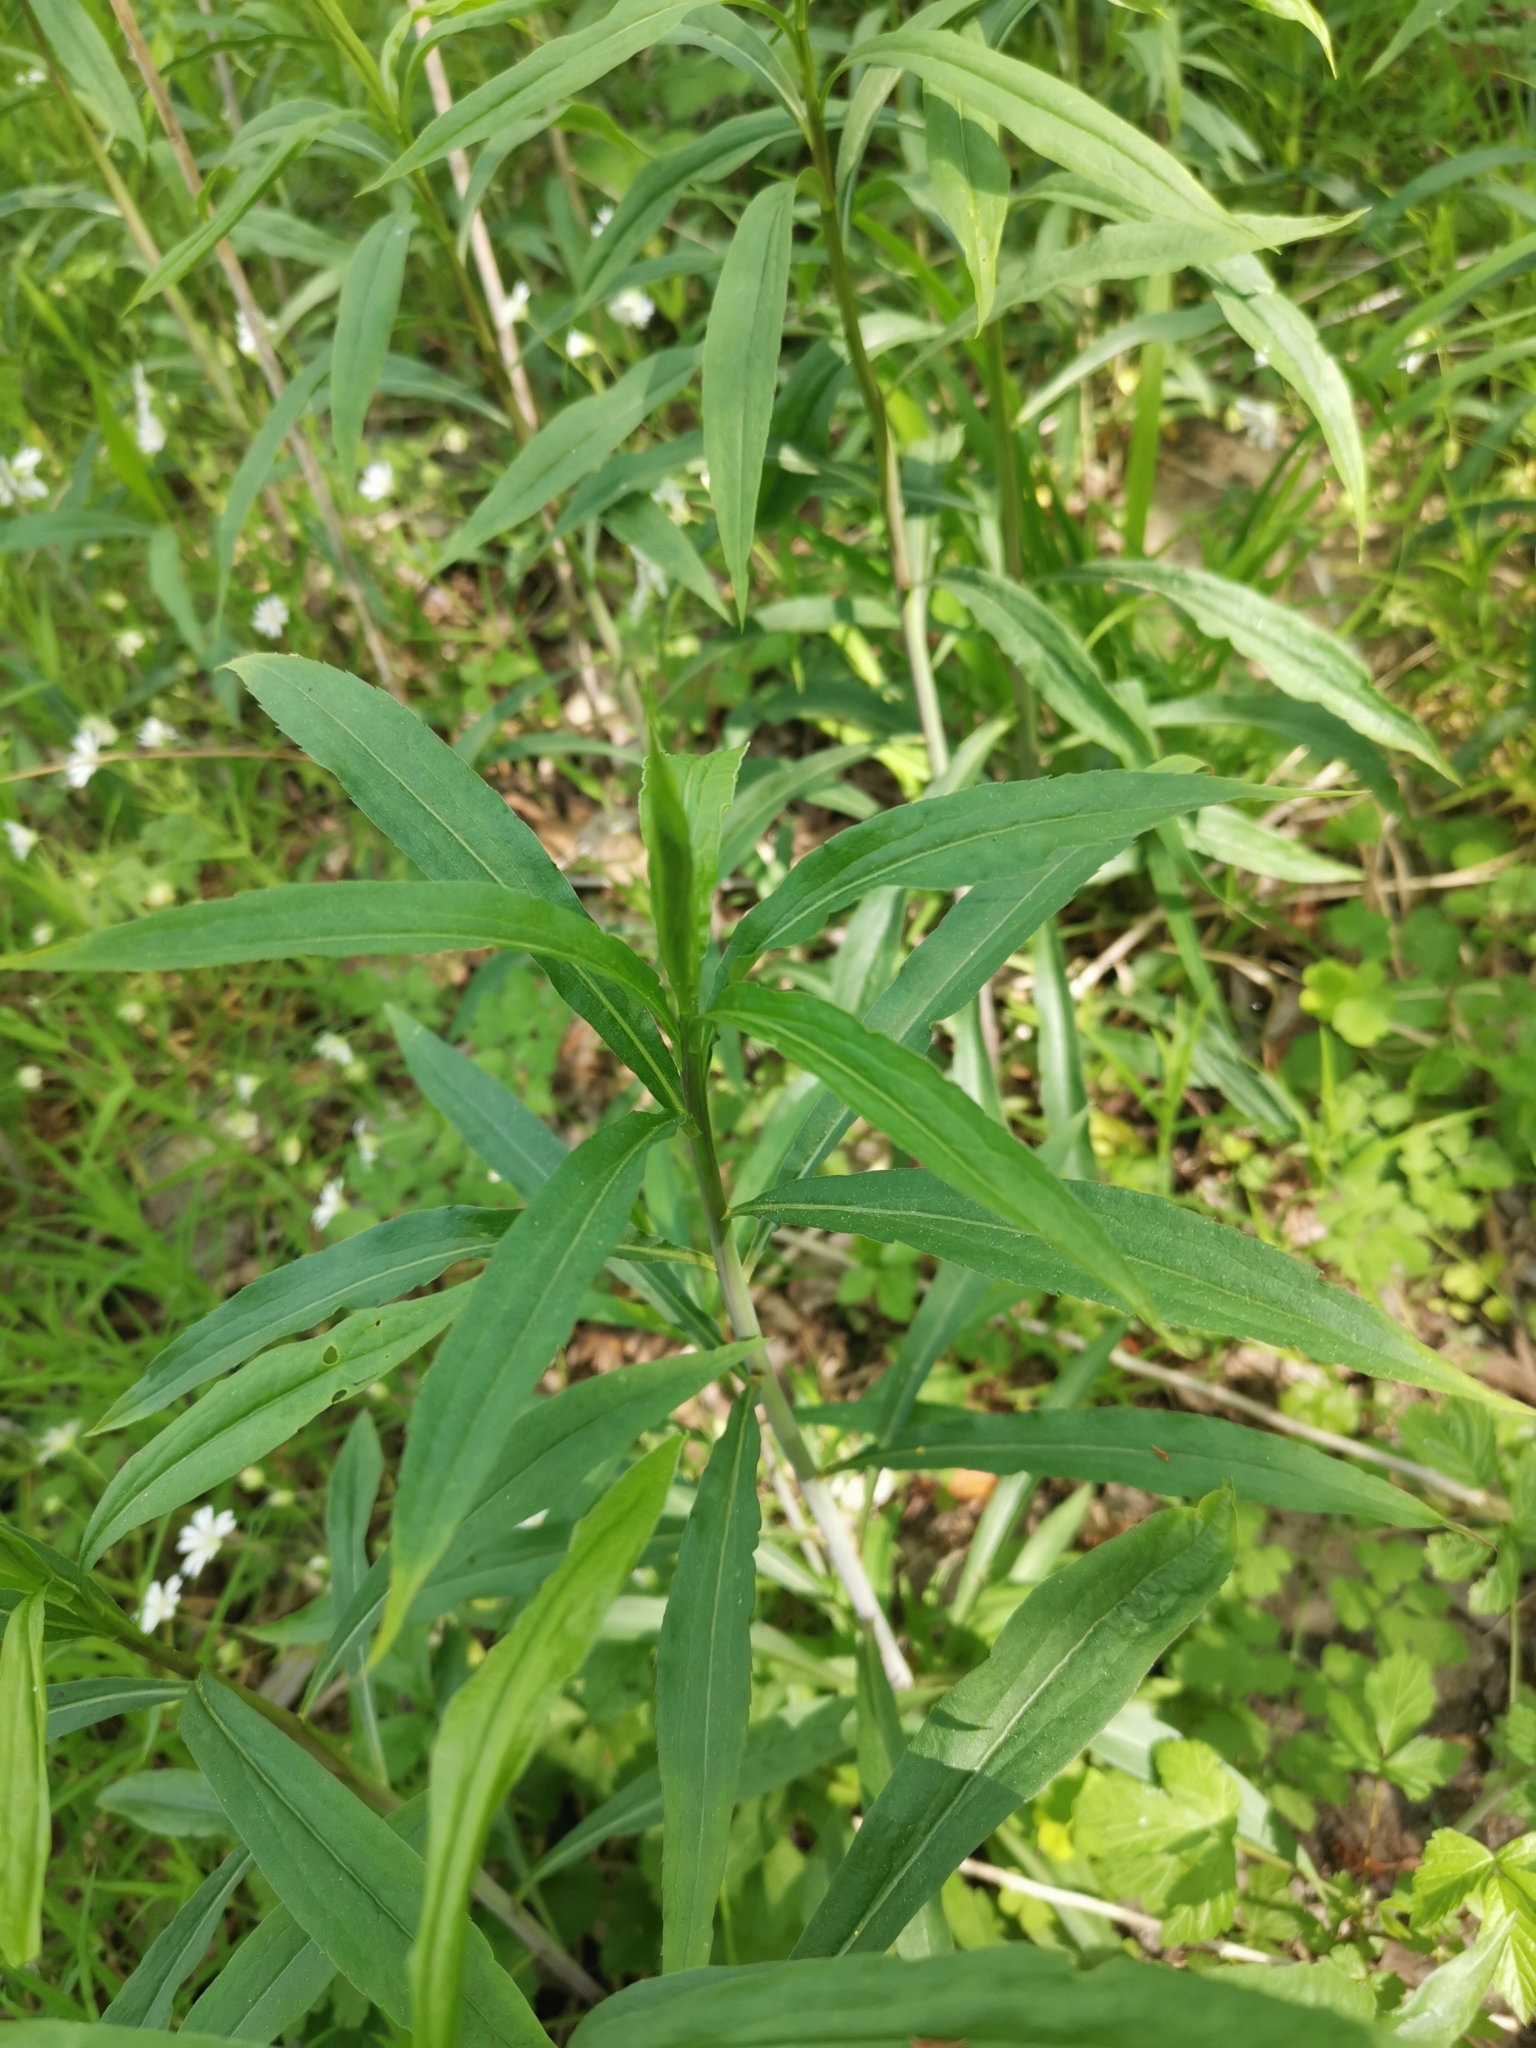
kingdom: Plantae
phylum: Tracheophyta
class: Magnoliopsida
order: Asterales
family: Asteraceae
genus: Solidago
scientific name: Solidago gigantea
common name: Giant goldenrod
